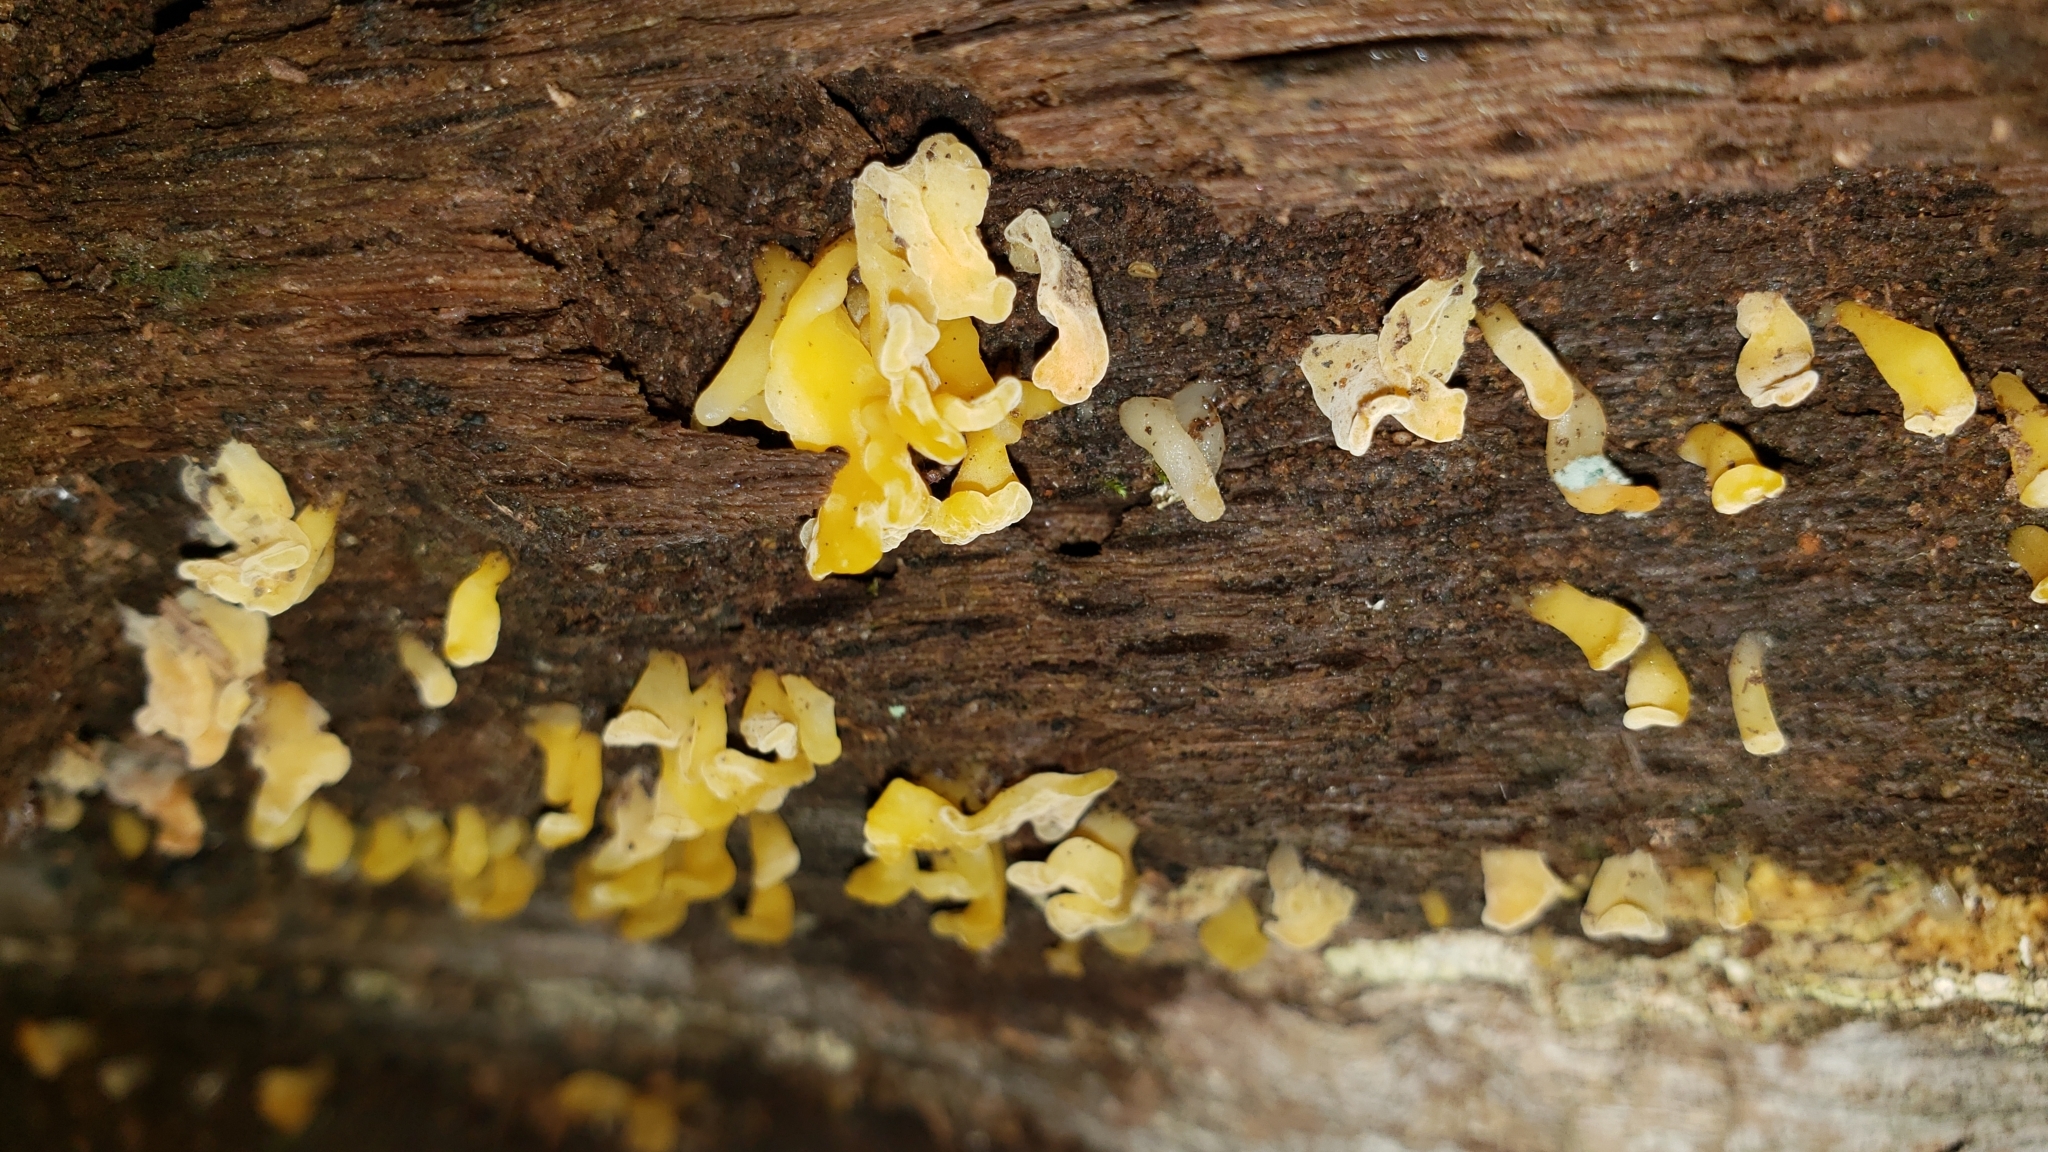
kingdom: Fungi
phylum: Basidiomycota
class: Dacrymycetes
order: Dacrymycetales
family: Dacrymycetaceae
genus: Dacrymyces
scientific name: Dacrymyces spathularius
